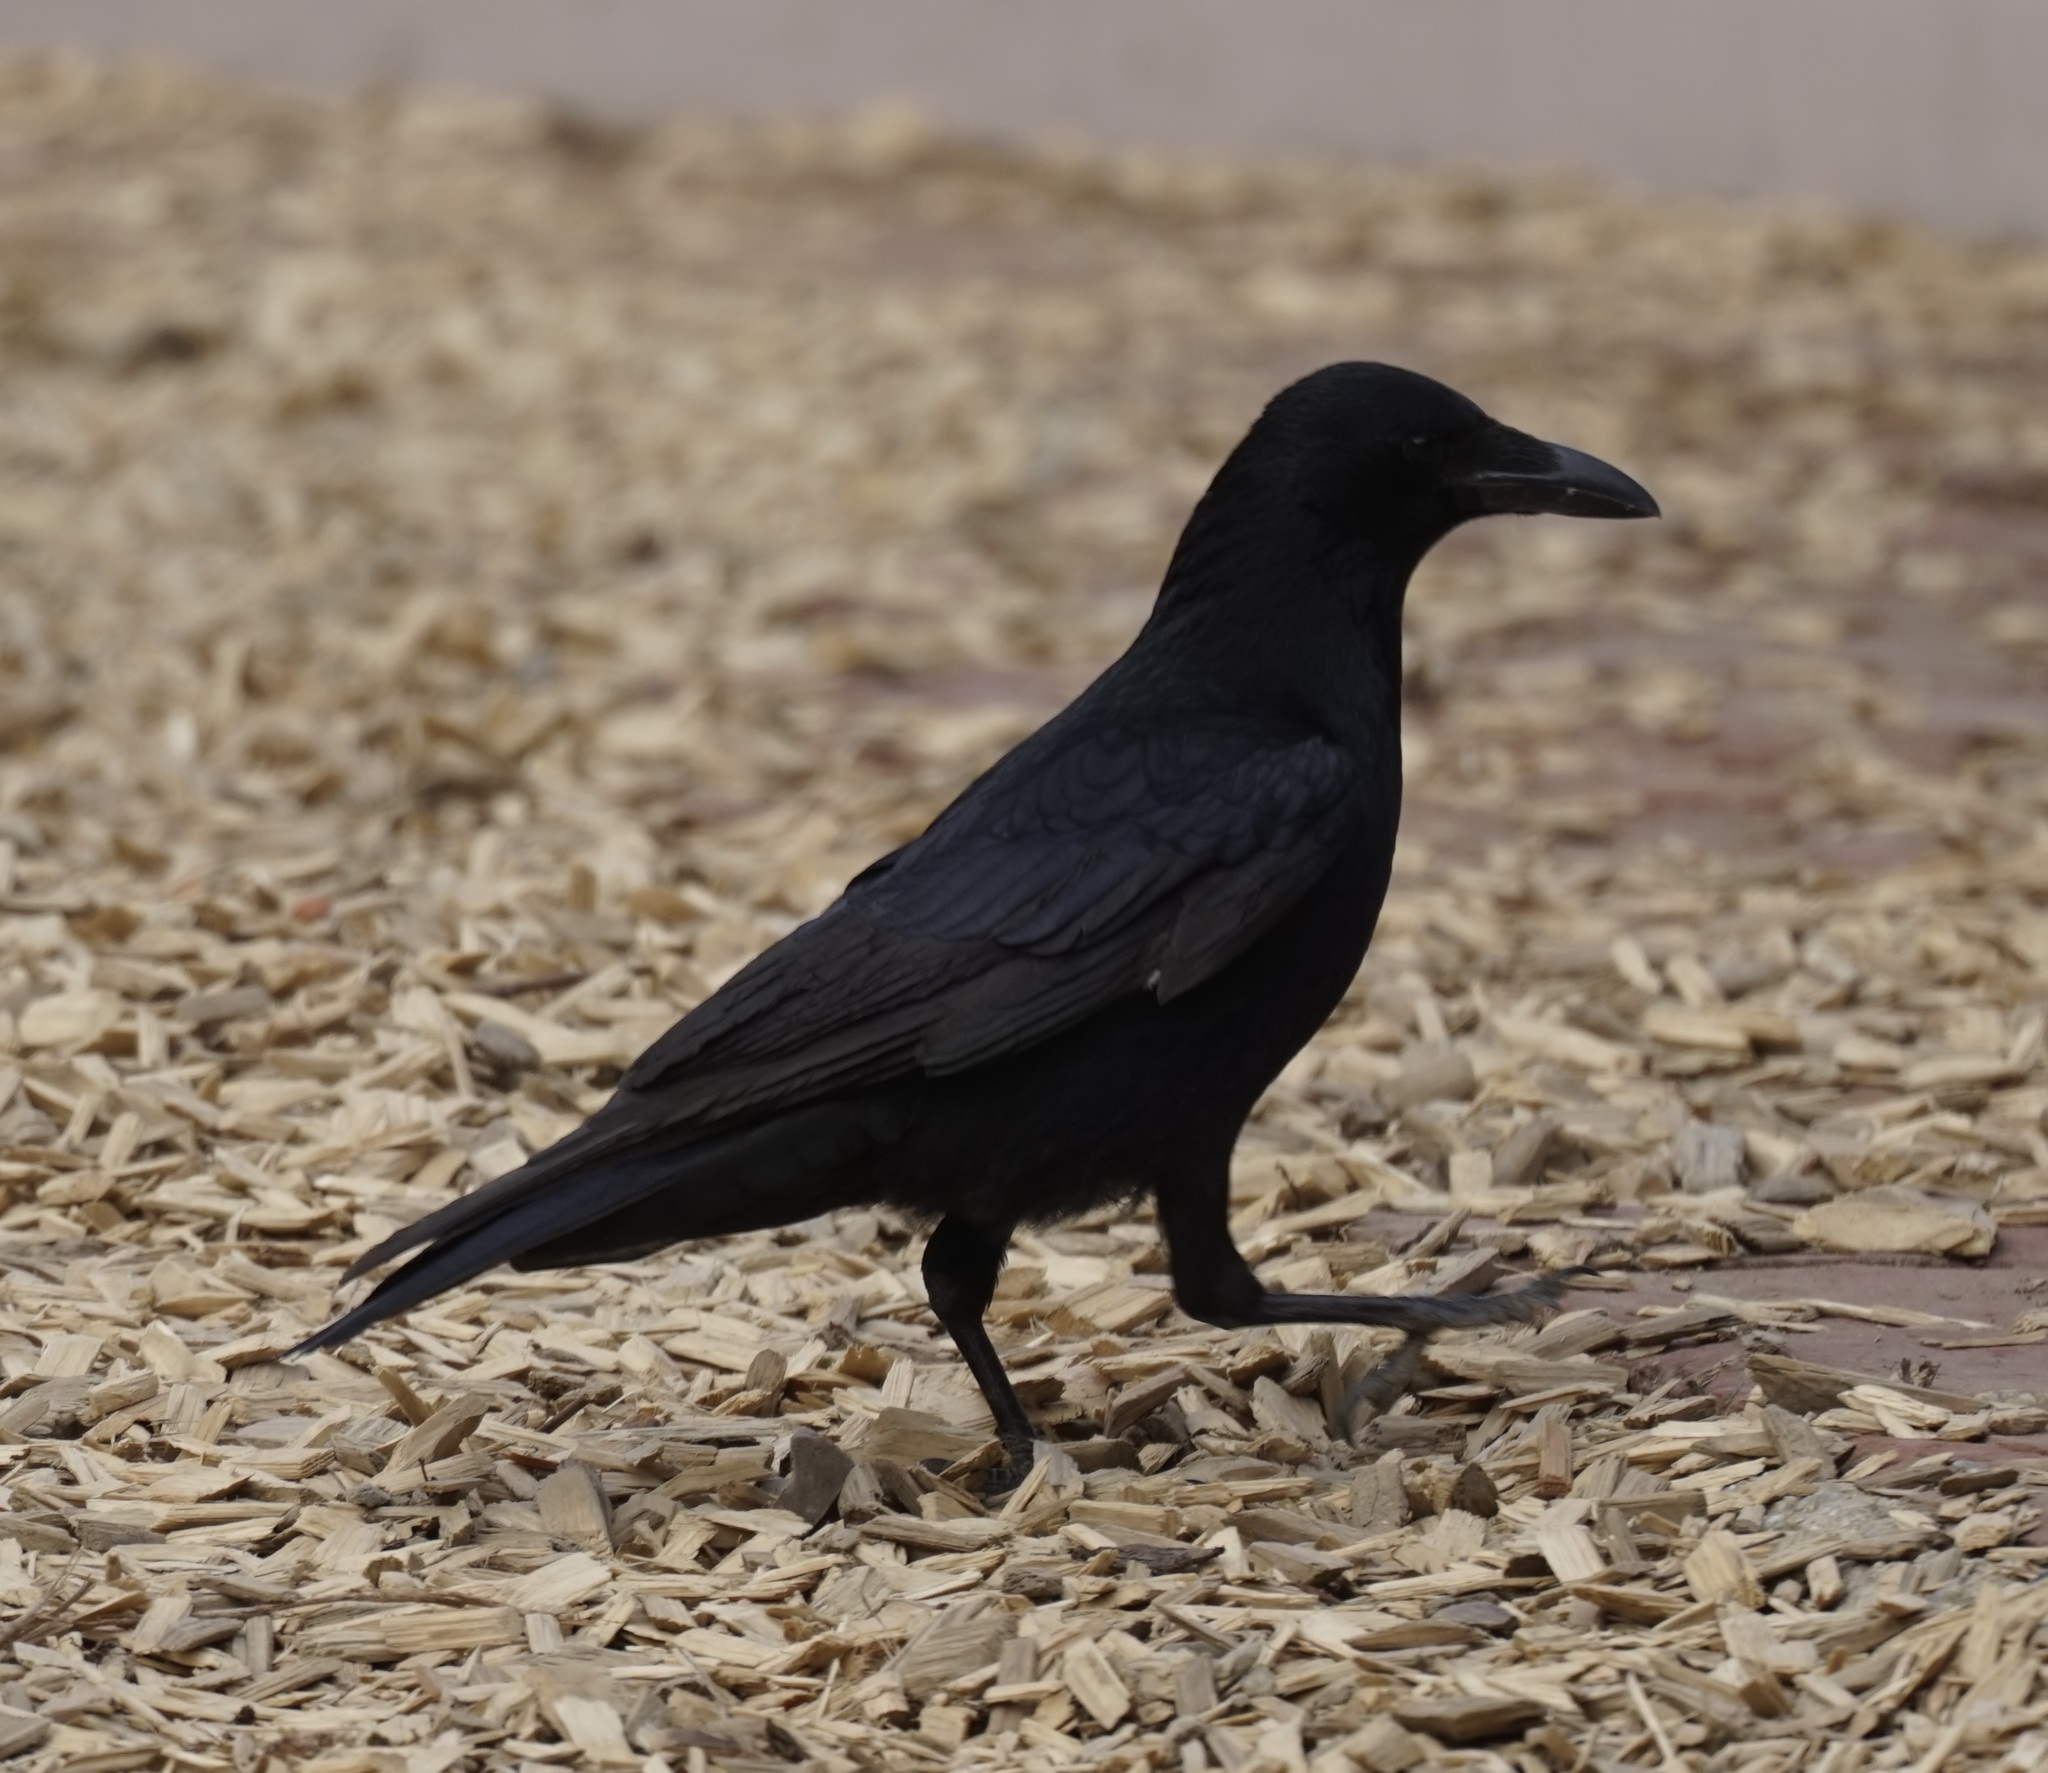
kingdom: Animalia
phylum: Chordata
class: Aves
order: Passeriformes
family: Corvidae
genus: Corvus
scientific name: Corvus corone
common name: Carrion crow
